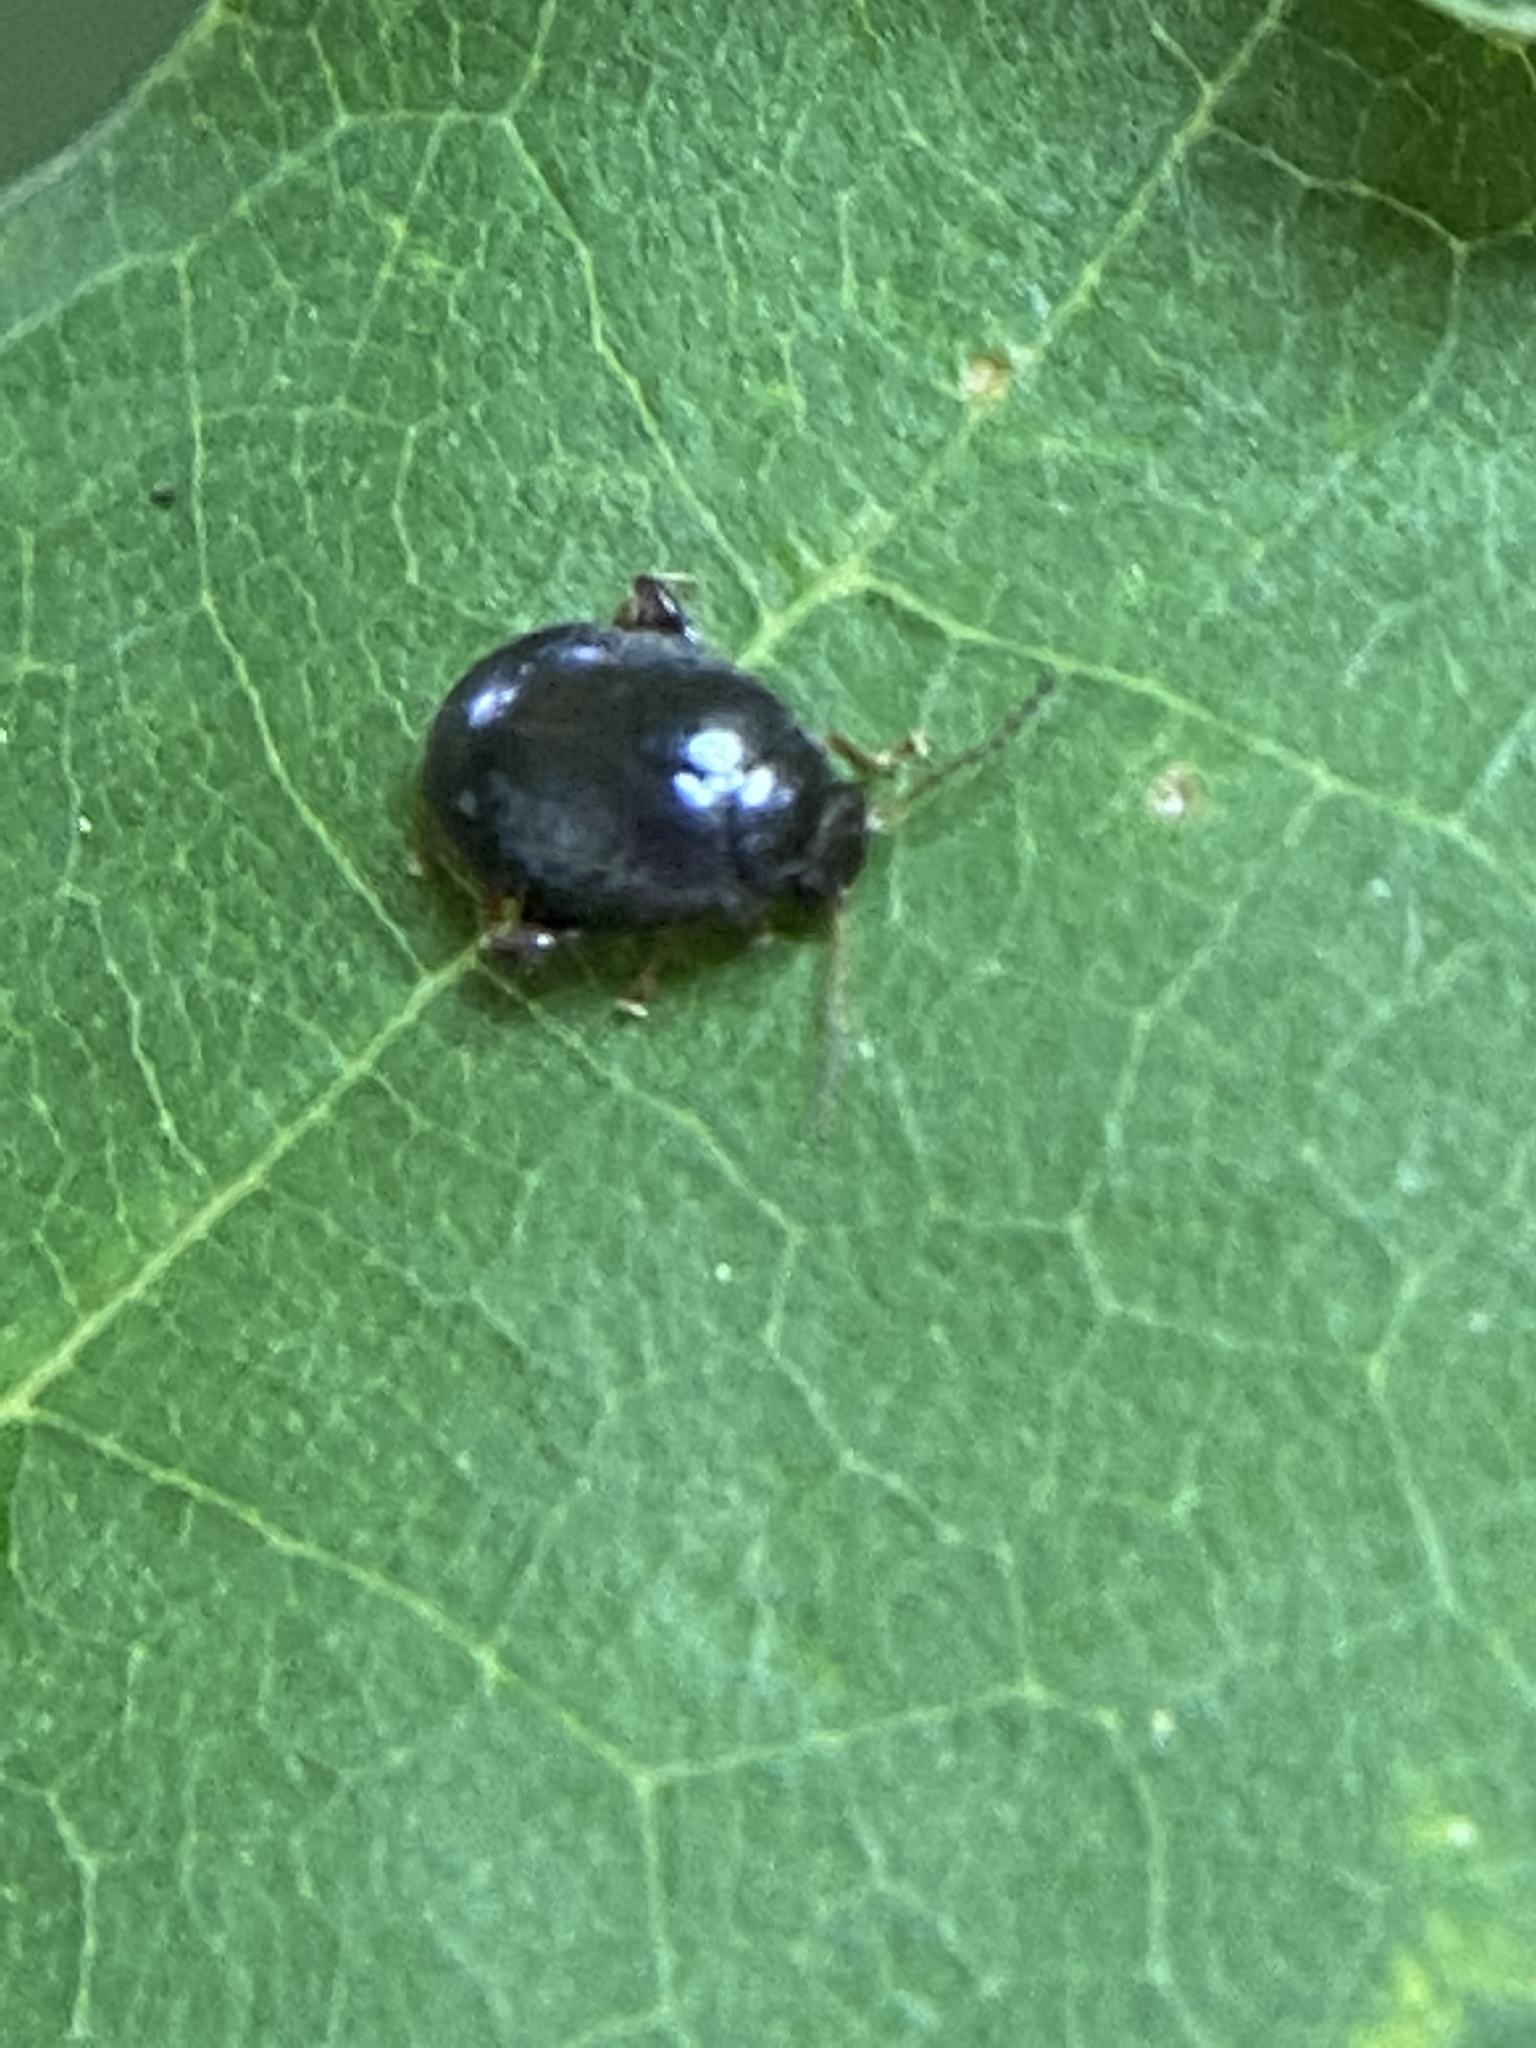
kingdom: Animalia
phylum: Arthropoda
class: Insecta
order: Coleoptera
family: Scirtidae
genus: Scirtes
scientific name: Scirtes tibialis
